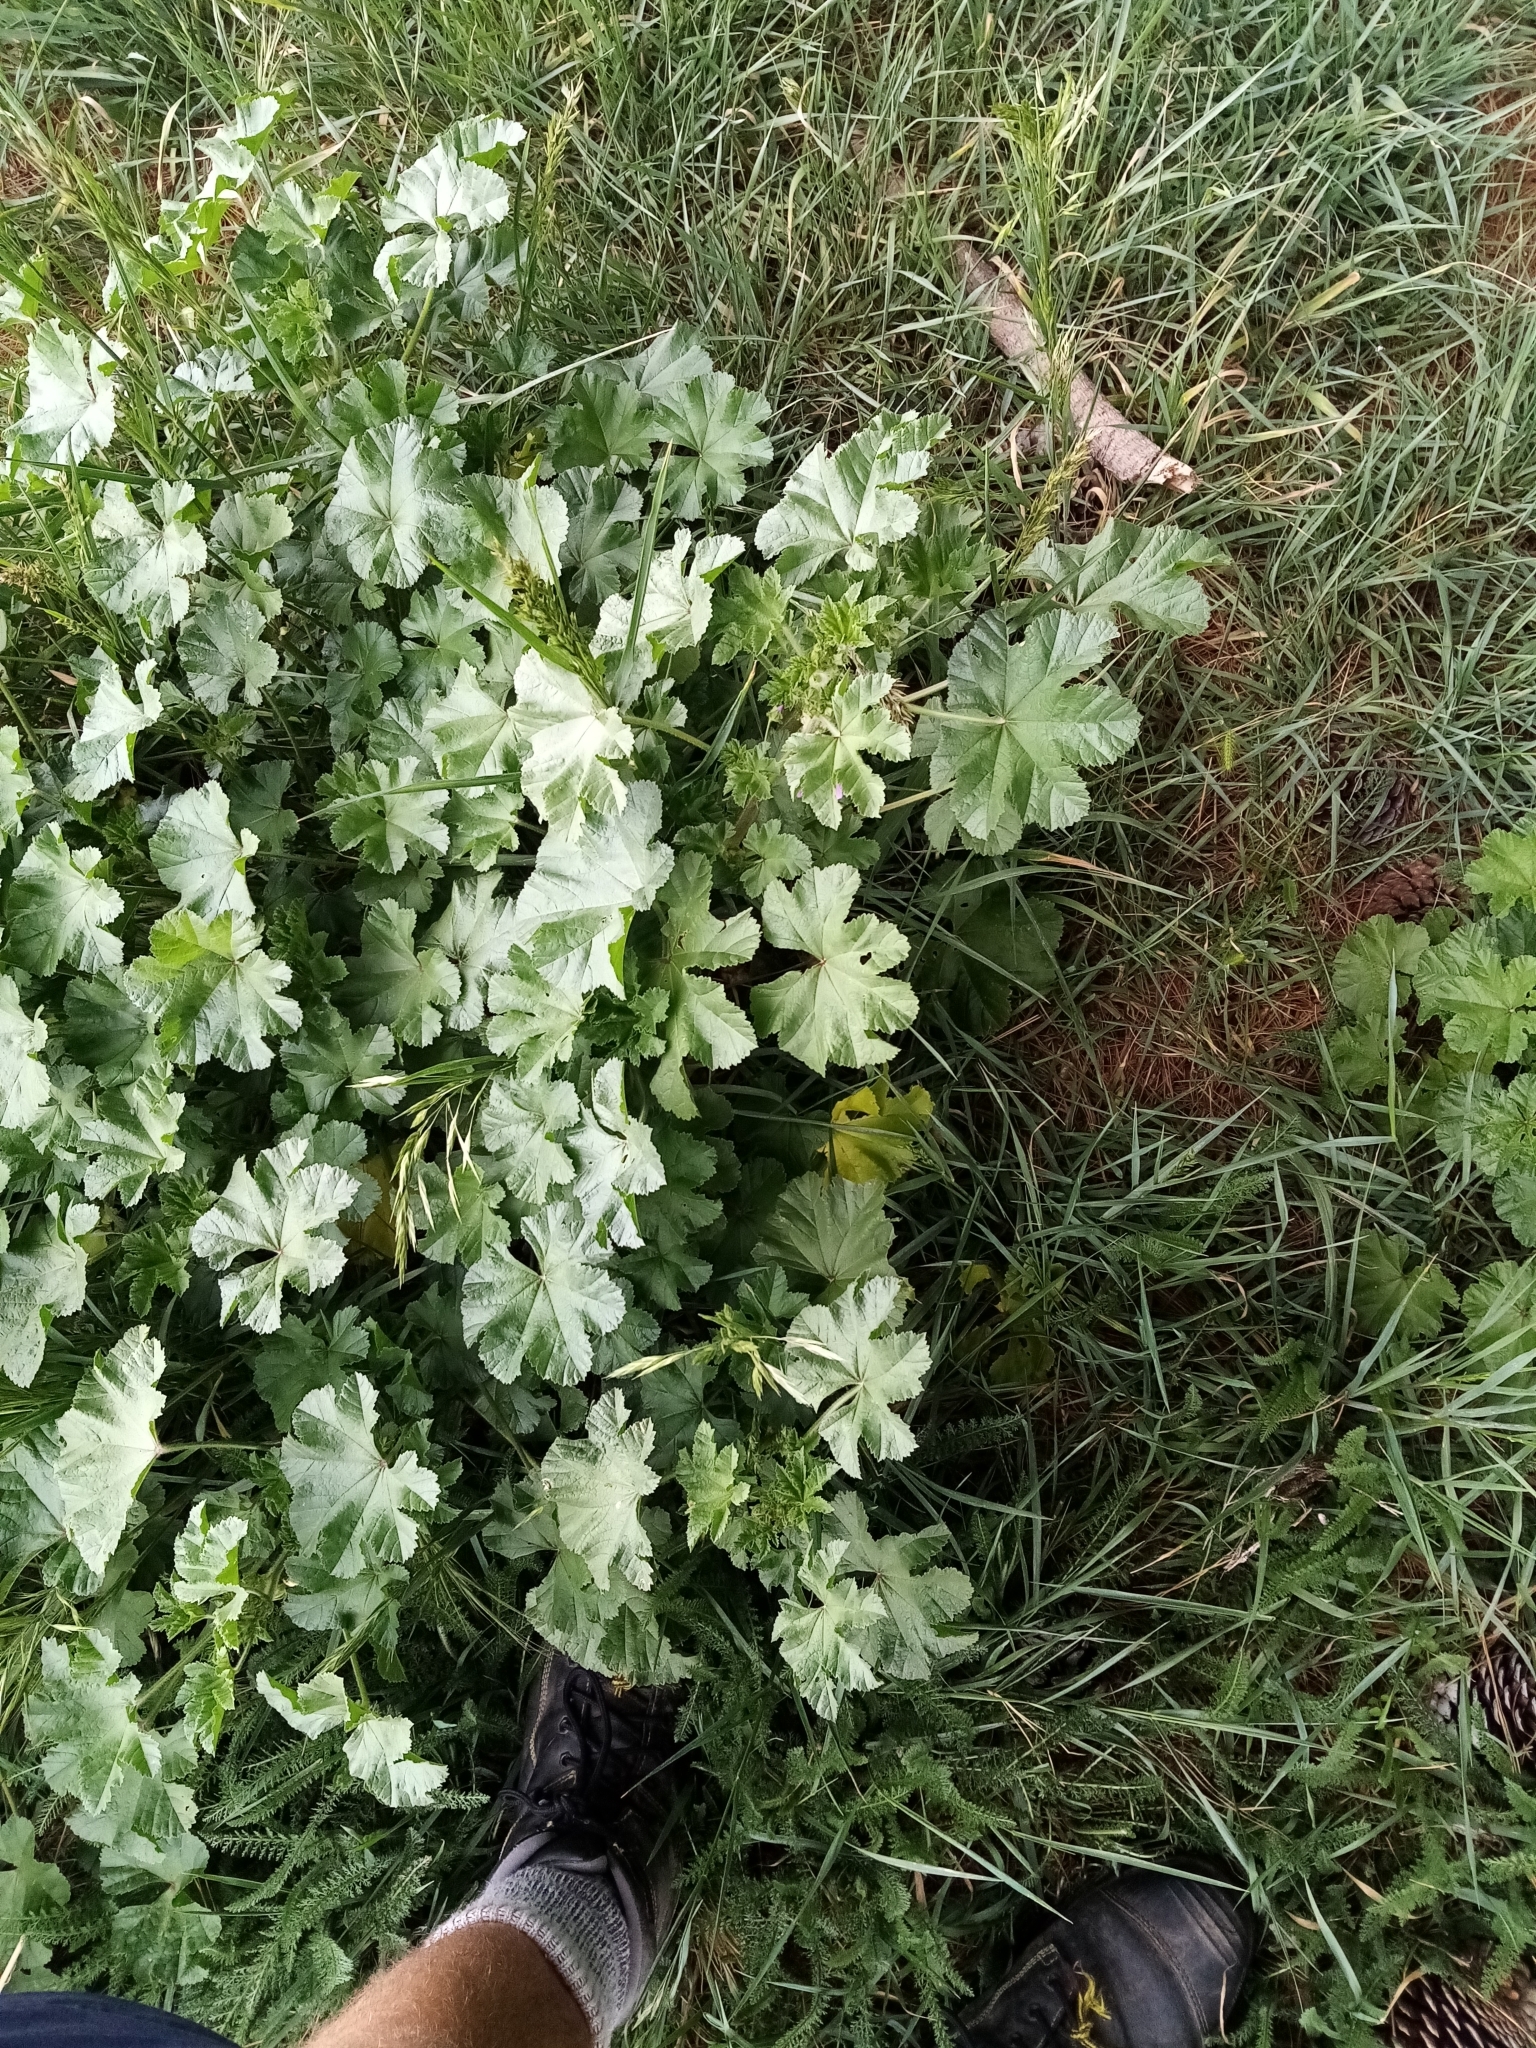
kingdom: Plantae
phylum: Tracheophyta
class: Magnoliopsida
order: Malvales
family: Malvaceae
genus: Malva
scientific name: Malva sylvestris
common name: Common mallow
